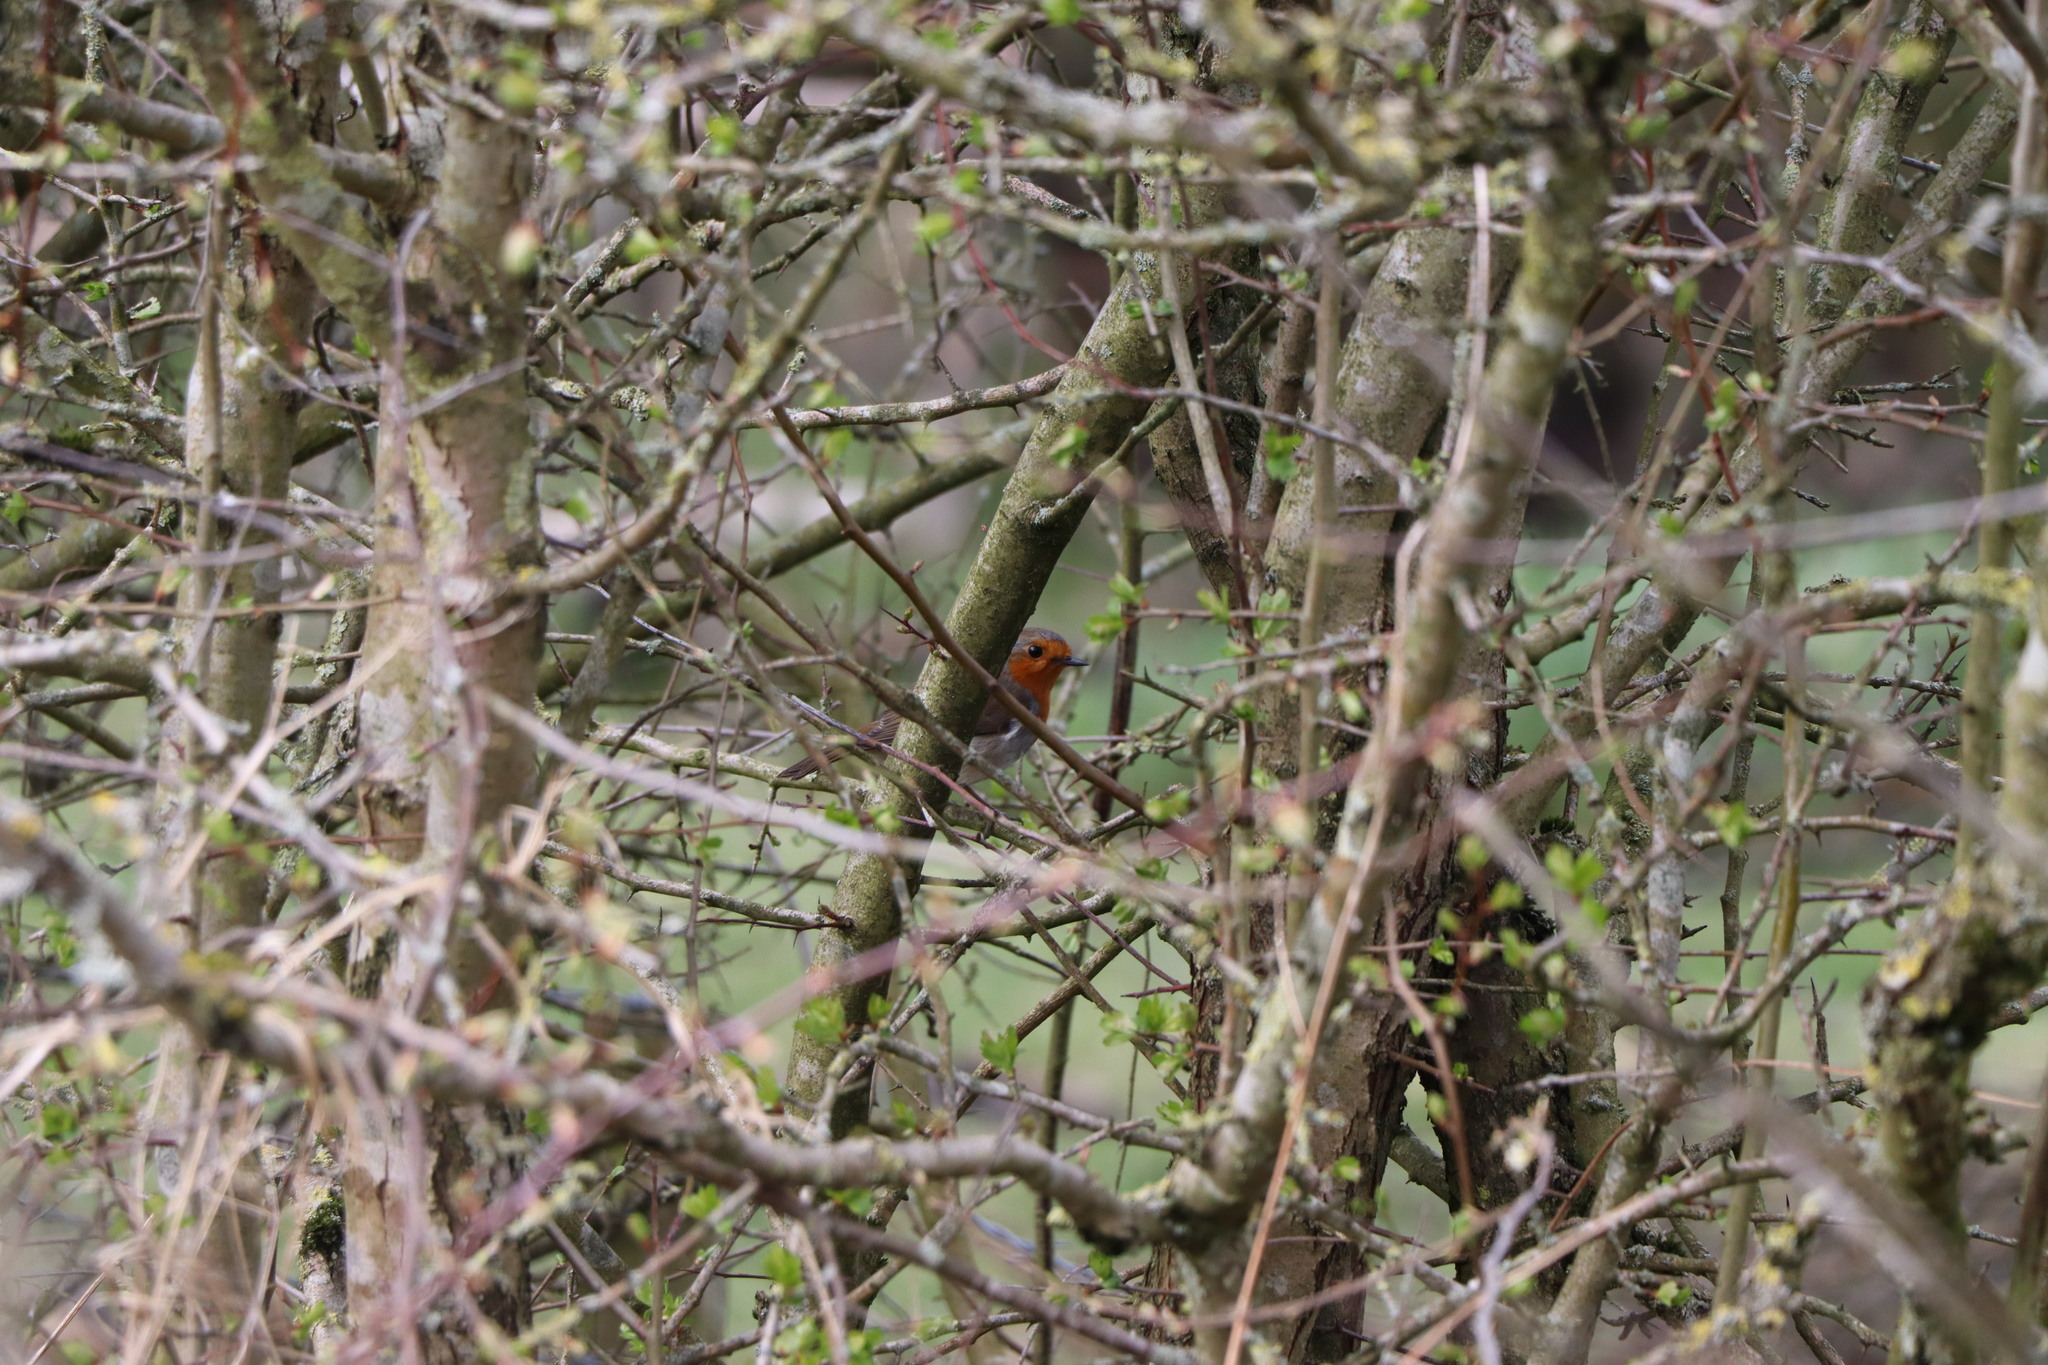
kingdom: Animalia
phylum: Chordata
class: Aves
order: Passeriformes
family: Muscicapidae
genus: Erithacus
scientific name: Erithacus rubecula
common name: European robin
